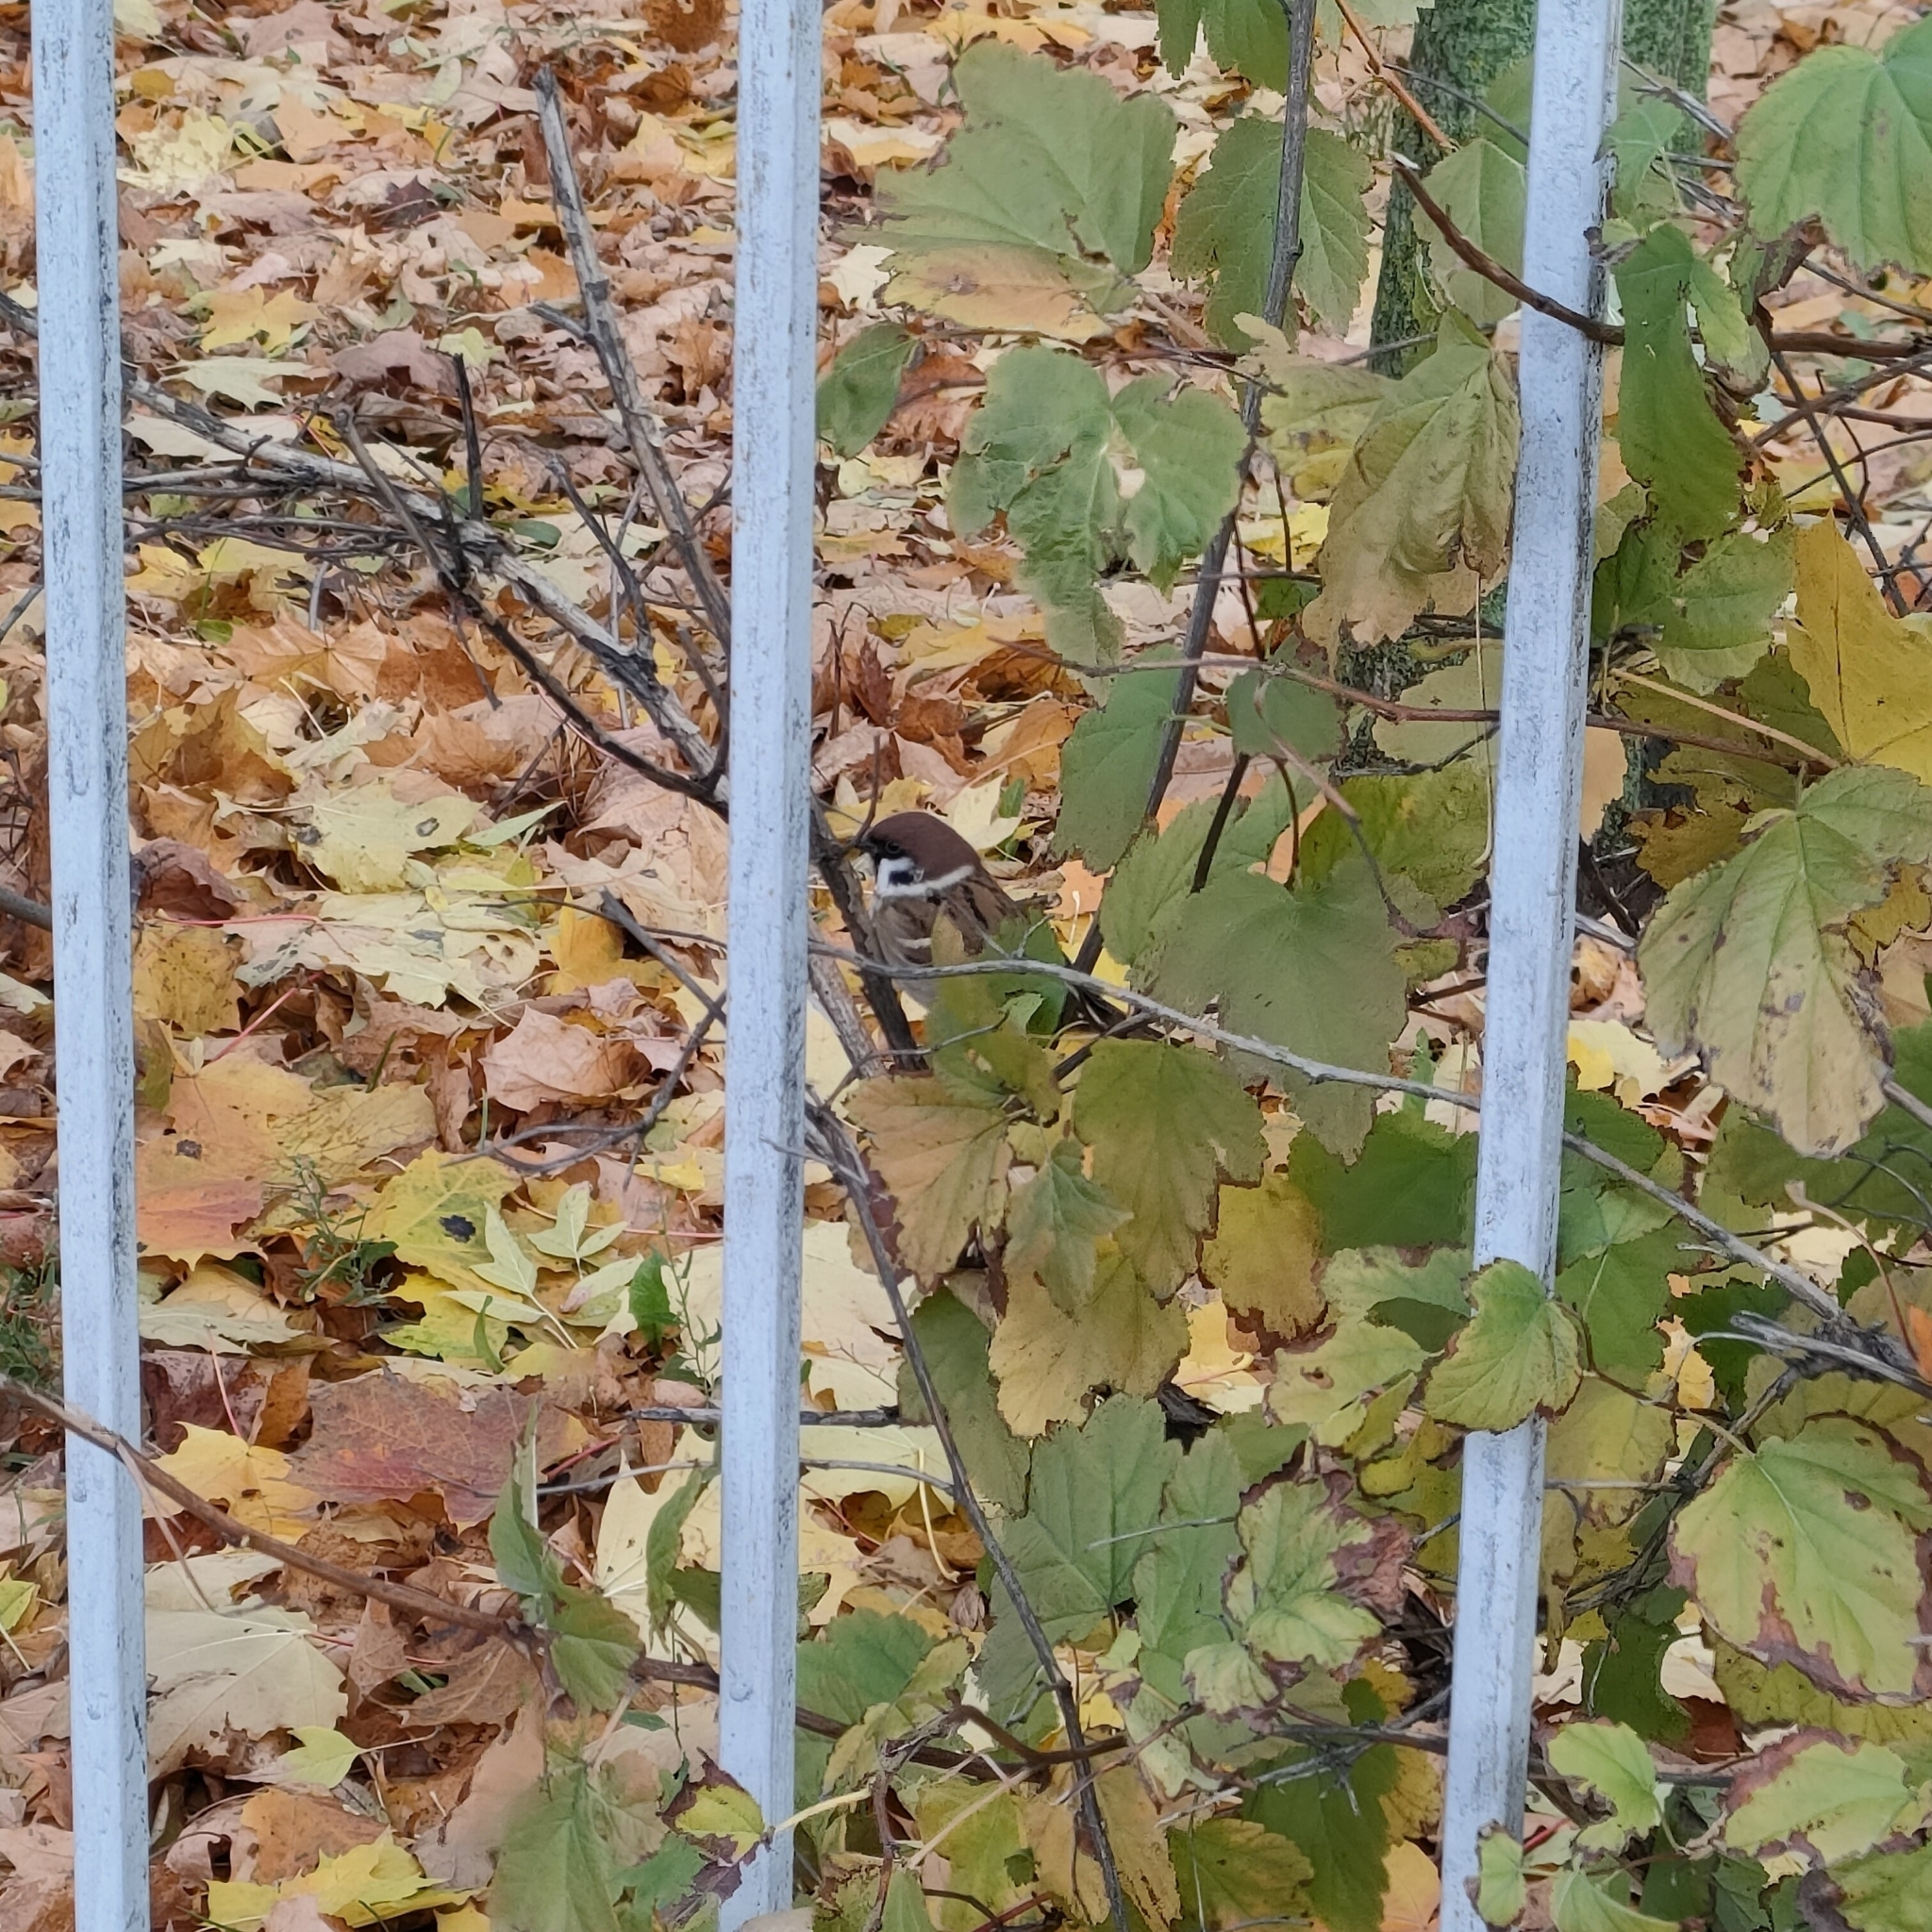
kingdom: Animalia
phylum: Chordata
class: Aves
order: Passeriformes
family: Passeridae
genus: Passer
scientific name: Passer montanus
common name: Eurasian tree sparrow
